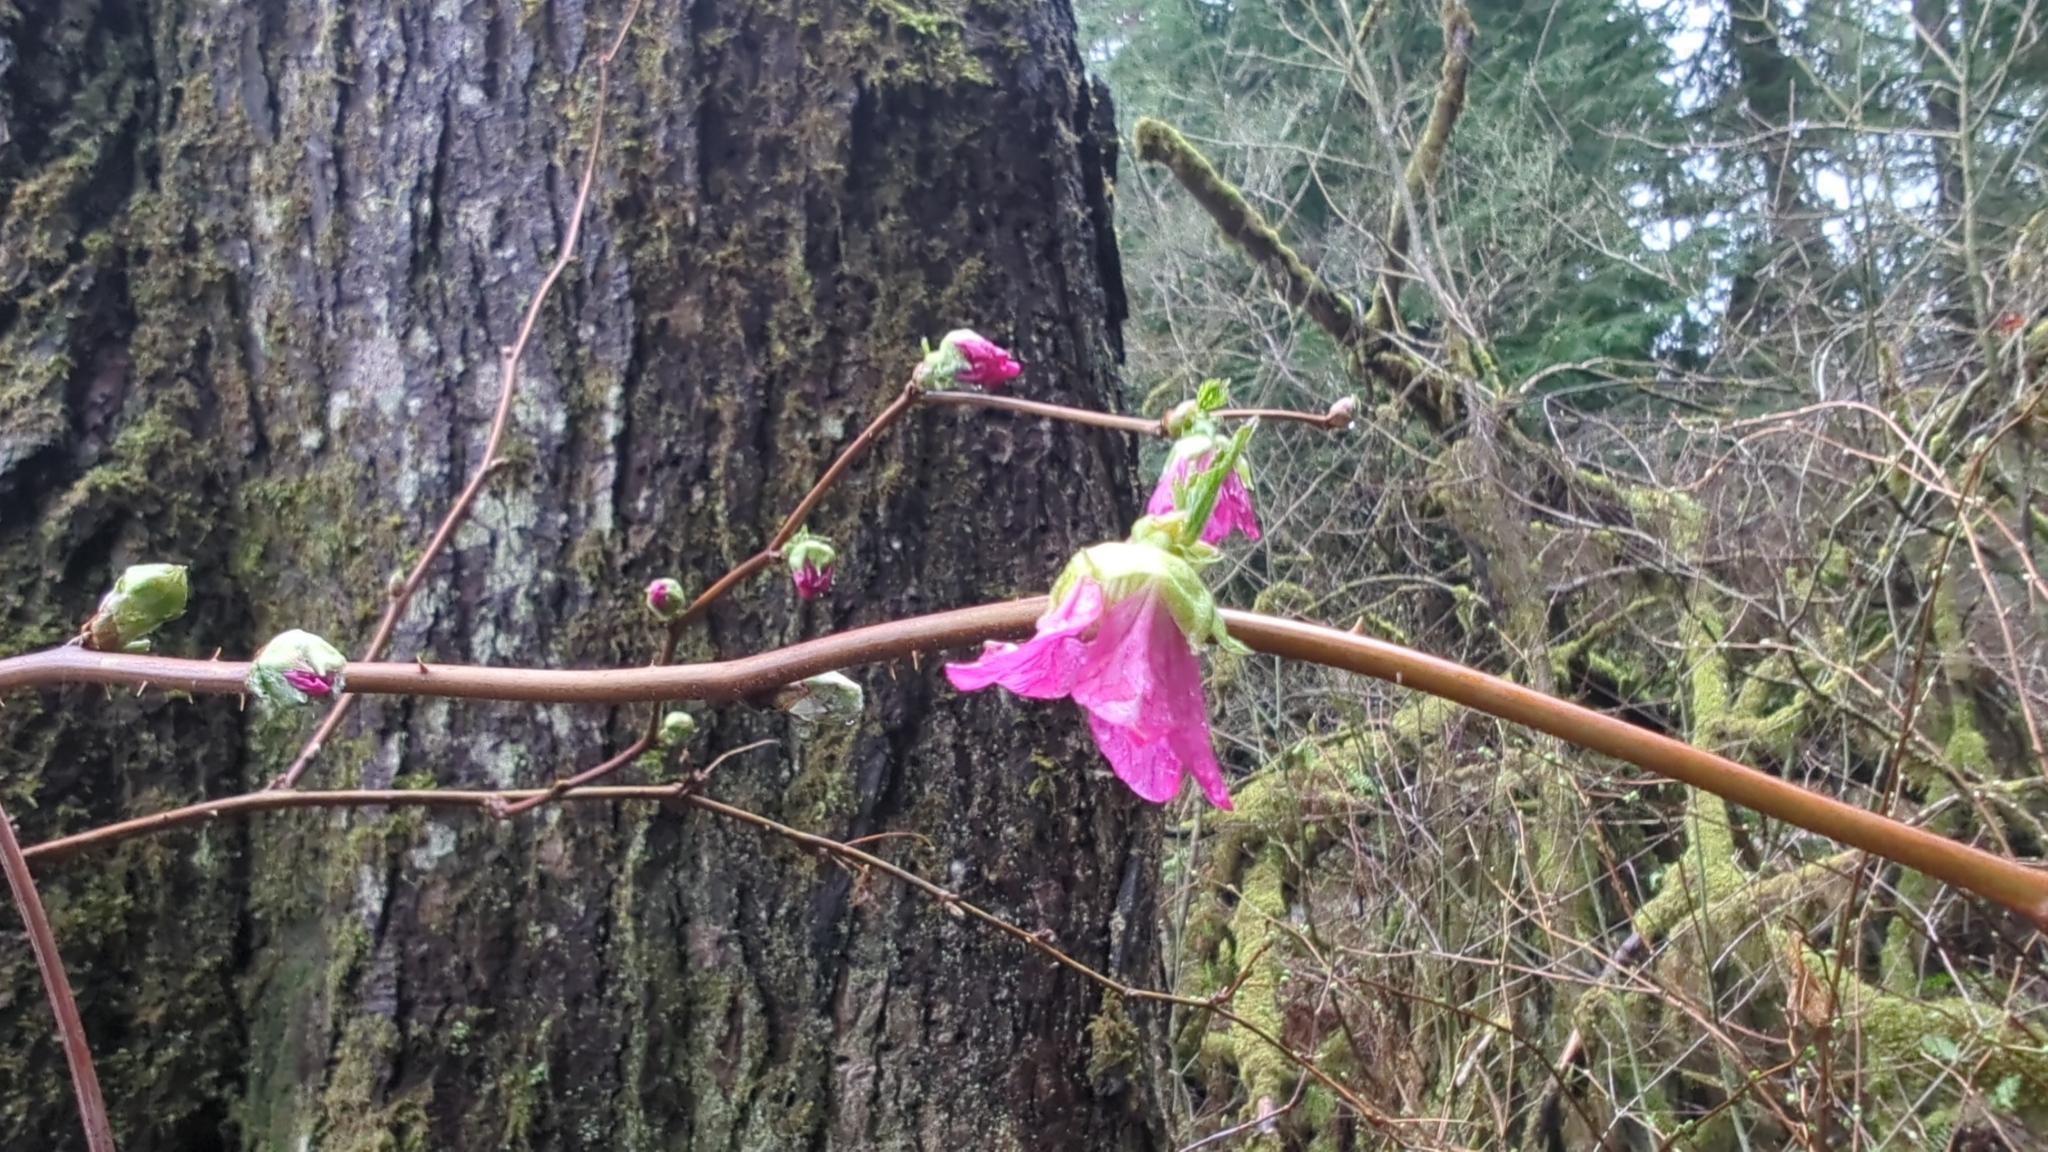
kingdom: Plantae
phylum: Tracheophyta
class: Magnoliopsida
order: Rosales
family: Rosaceae
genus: Rubus
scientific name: Rubus spectabilis
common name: Salmonberry
